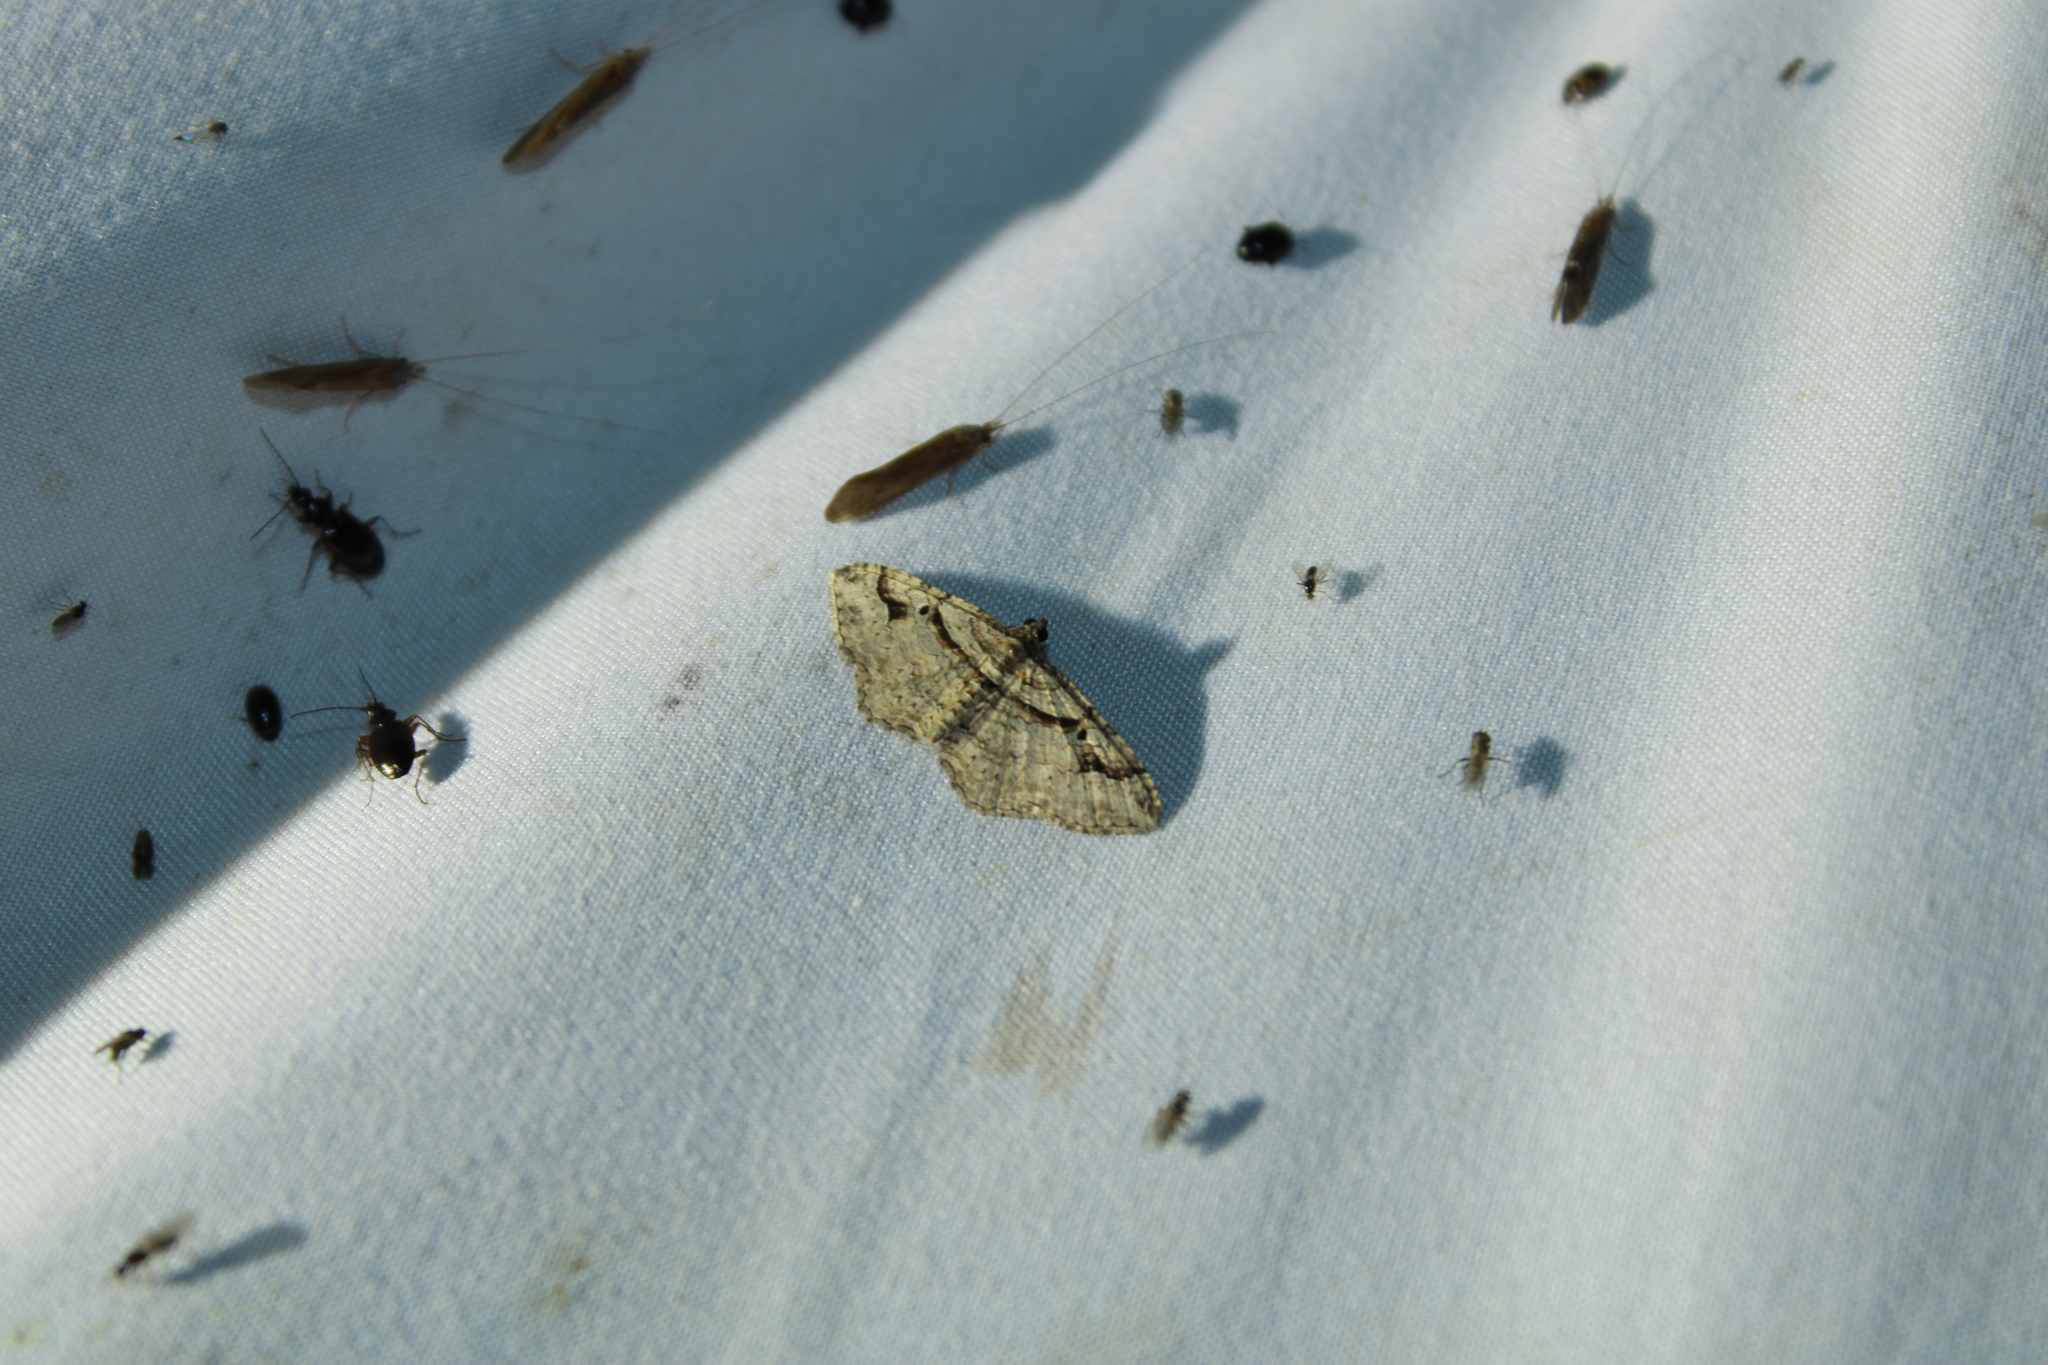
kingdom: Animalia
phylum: Arthropoda
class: Insecta
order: Lepidoptera
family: Geometridae
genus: Costaconvexa
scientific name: Costaconvexa centrostrigaria
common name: Bent-line carpet
